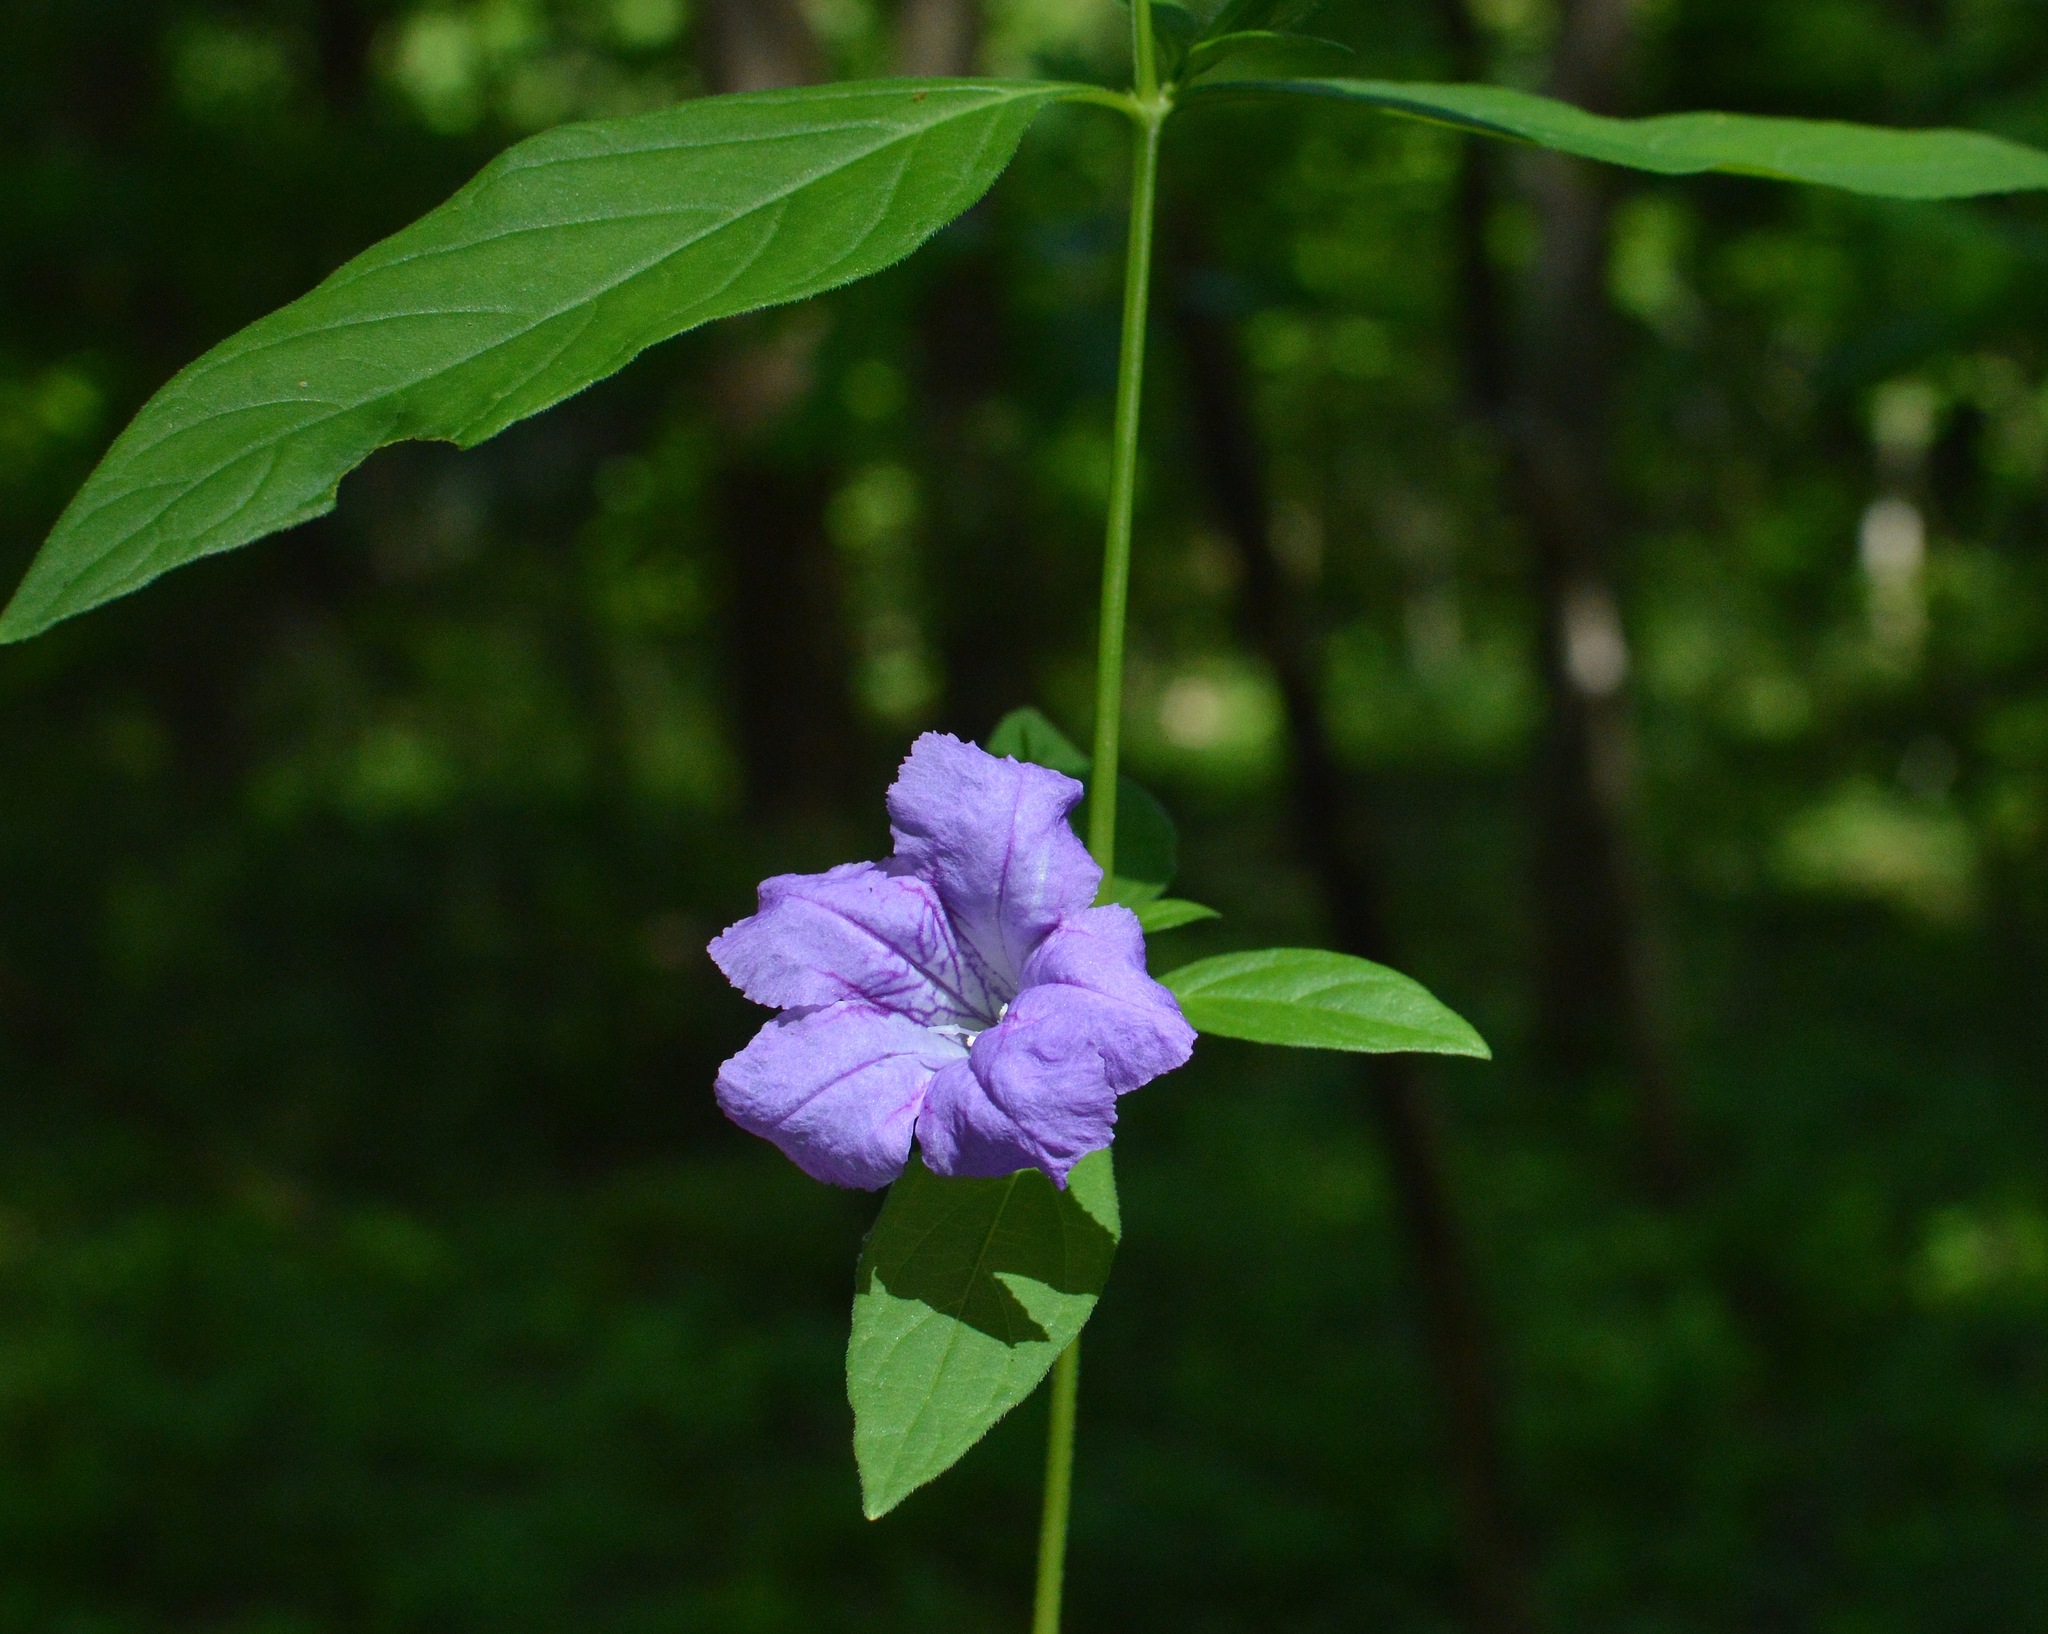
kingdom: Plantae
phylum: Tracheophyta
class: Magnoliopsida
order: Lamiales
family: Acanthaceae
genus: Ruellia
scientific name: Ruellia strepens
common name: Limestone wild petunia
